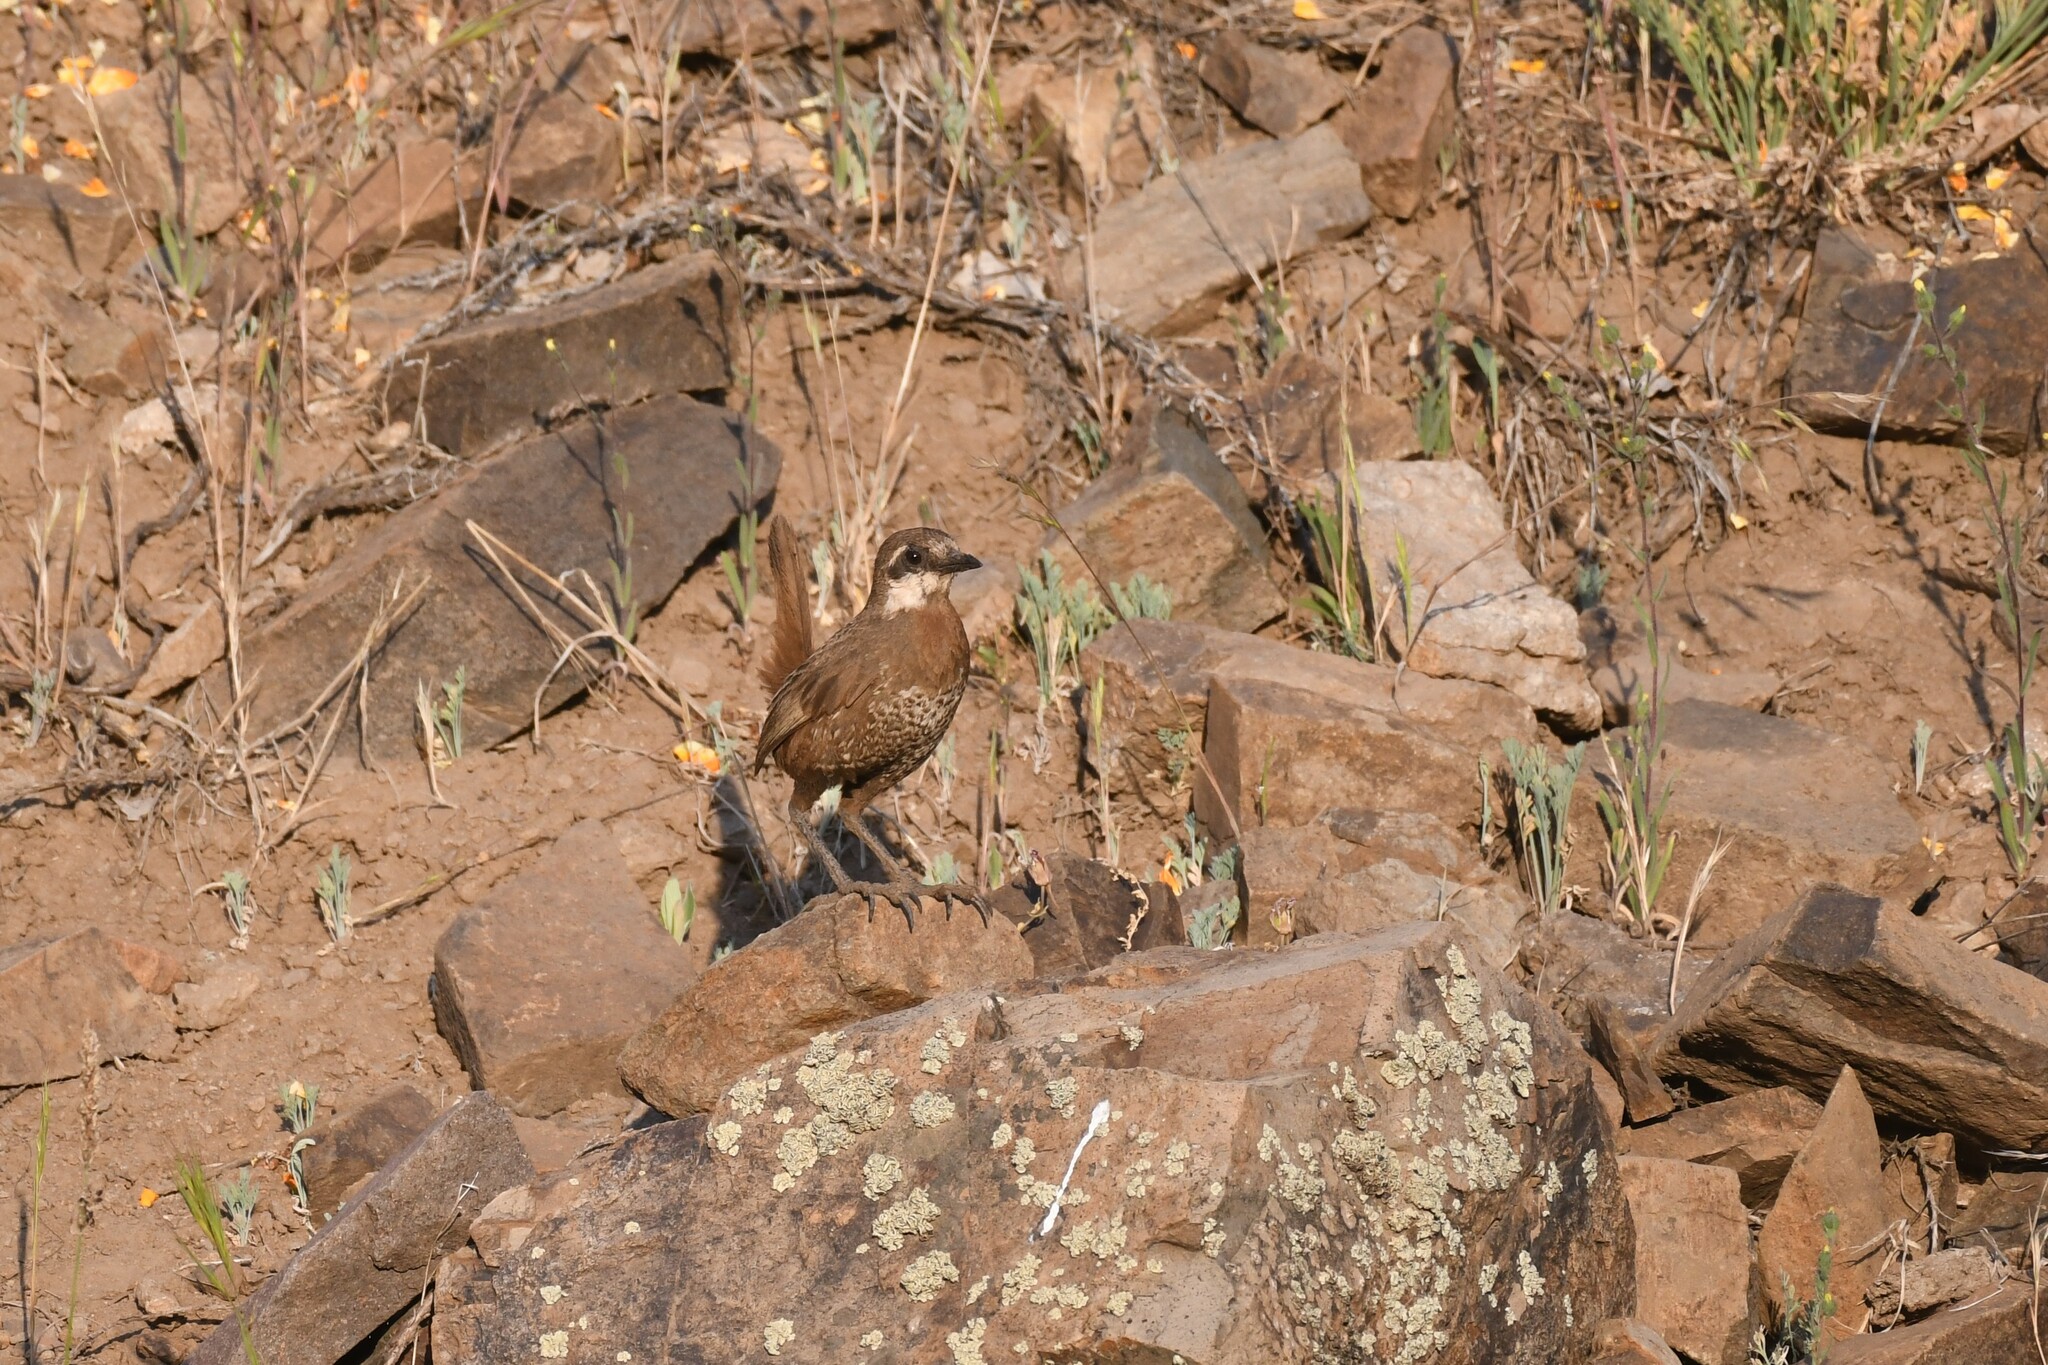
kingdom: Animalia
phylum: Chordata
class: Aves
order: Passeriformes
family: Rhinocryptidae
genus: Pteroptochos
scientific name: Pteroptochos megapodius
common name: Moustached turca
